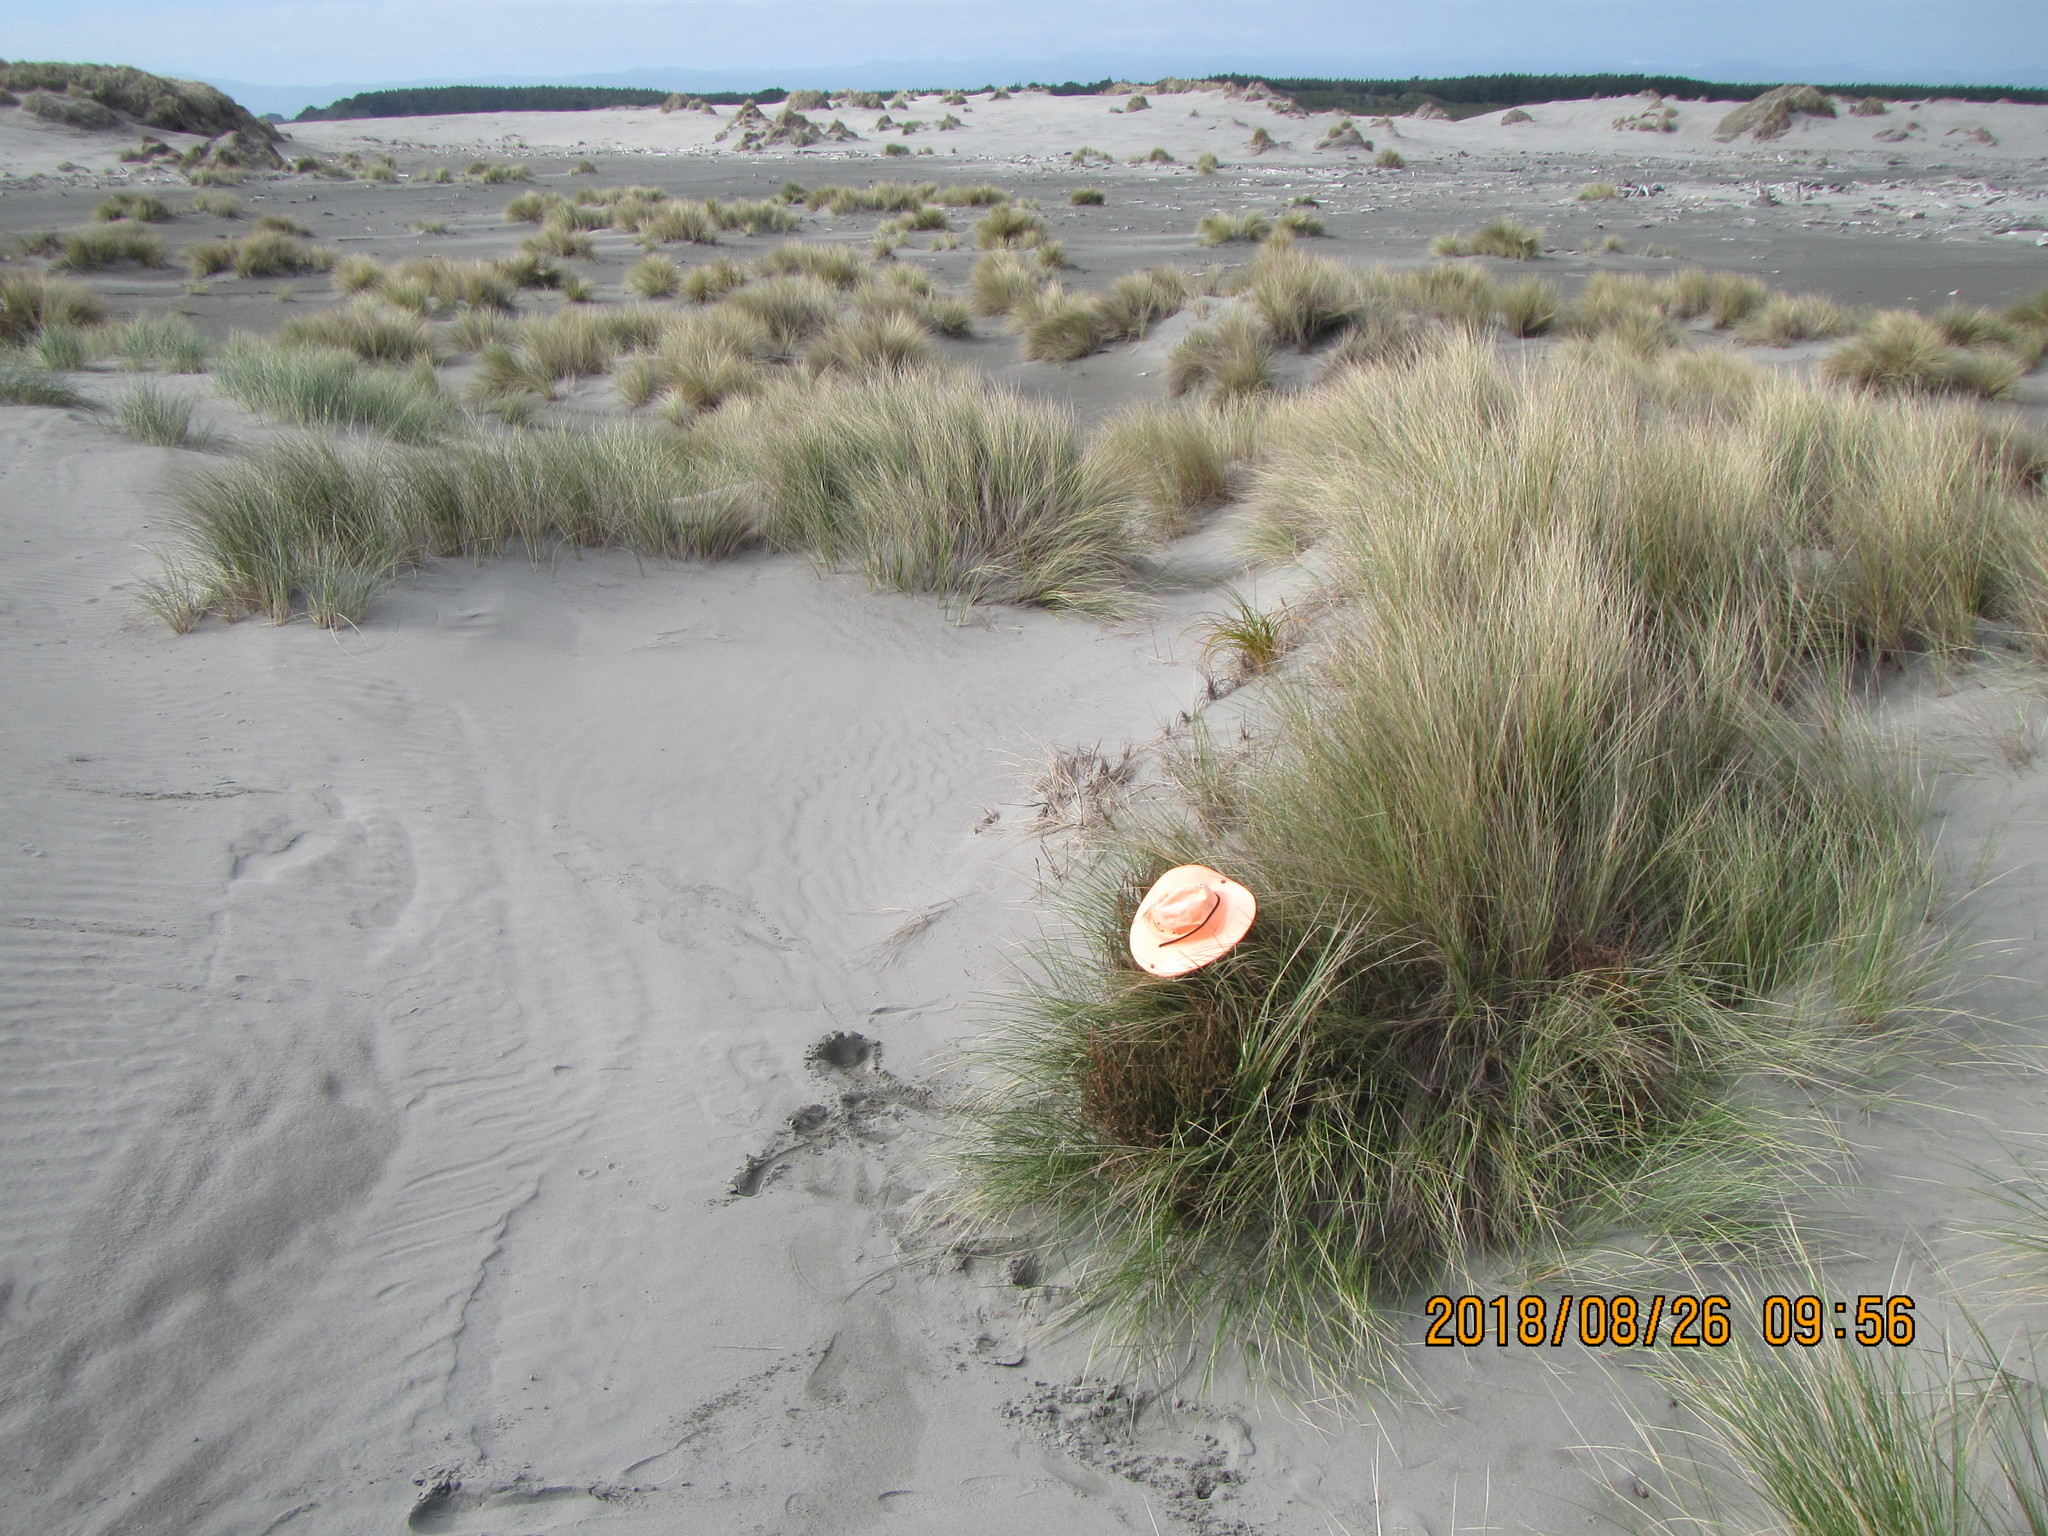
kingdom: Plantae
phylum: Tracheophyta
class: Magnoliopsida
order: Gentianales
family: Rubiaceae
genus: Coprosma
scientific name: Coprosma acerosa
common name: Sand coprosma
